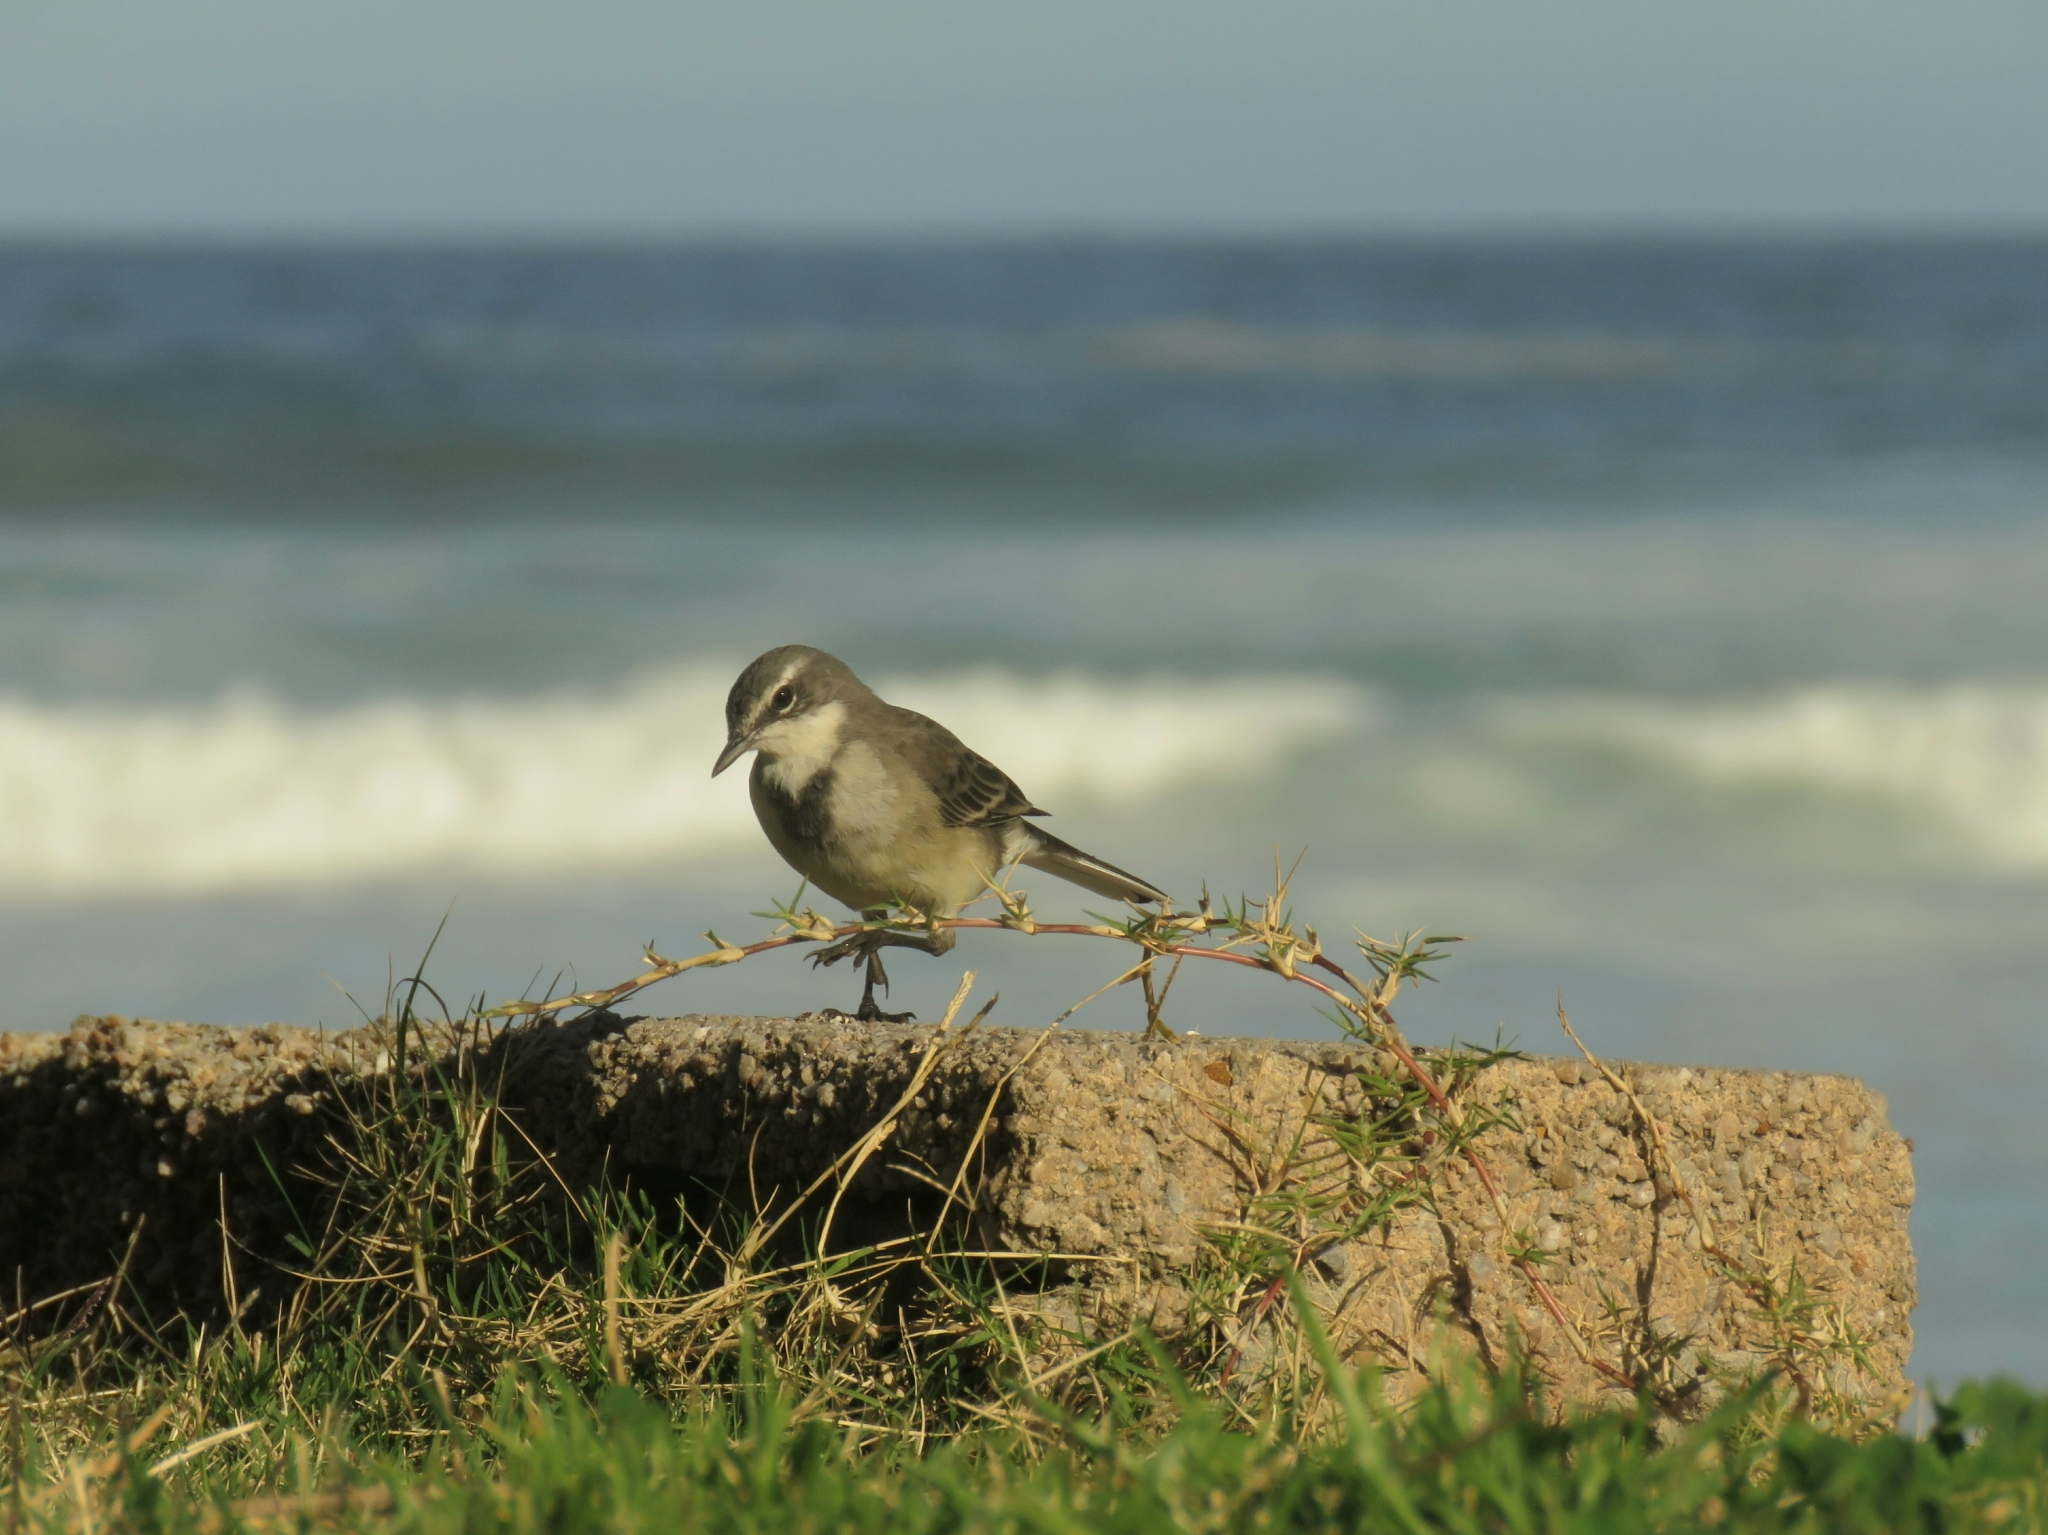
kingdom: Animalia
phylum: Chordata
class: Aves
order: Passeriformes
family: Motacillidae
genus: Motacilla
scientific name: Motacilla capensis
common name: Cape wagtail
